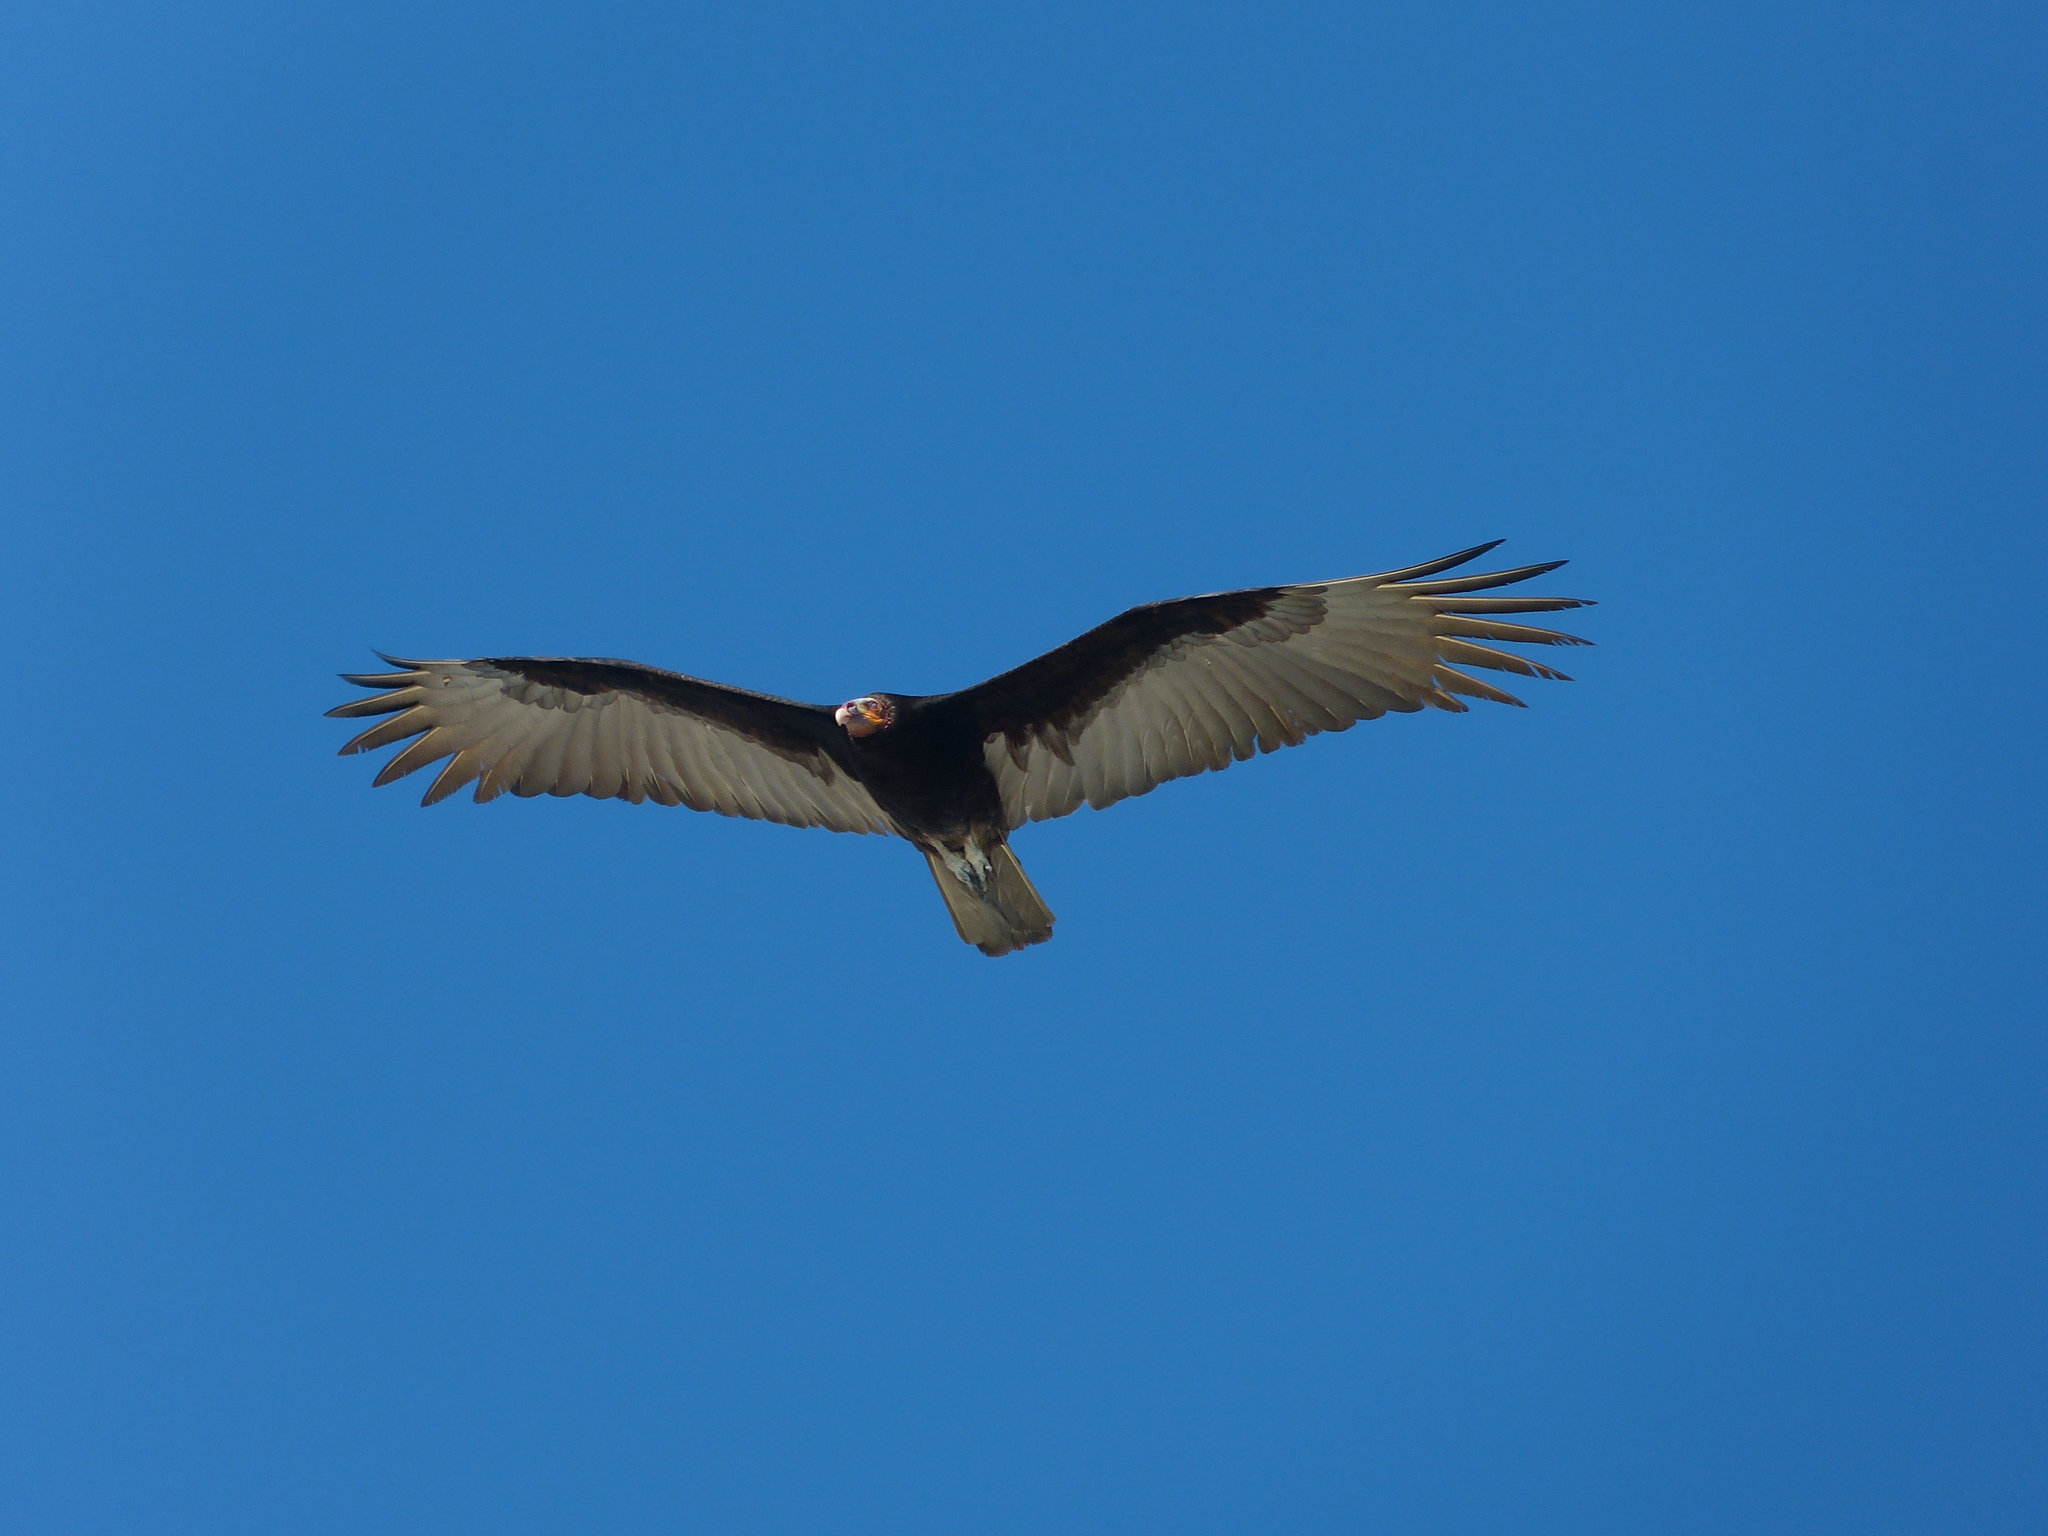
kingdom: Animalia
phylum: Chordata
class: Aves
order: Accipitriformes
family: Cathartidae
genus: Cathartes
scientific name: Cathartes burrovianus
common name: Lesser yellow-headed vulture
